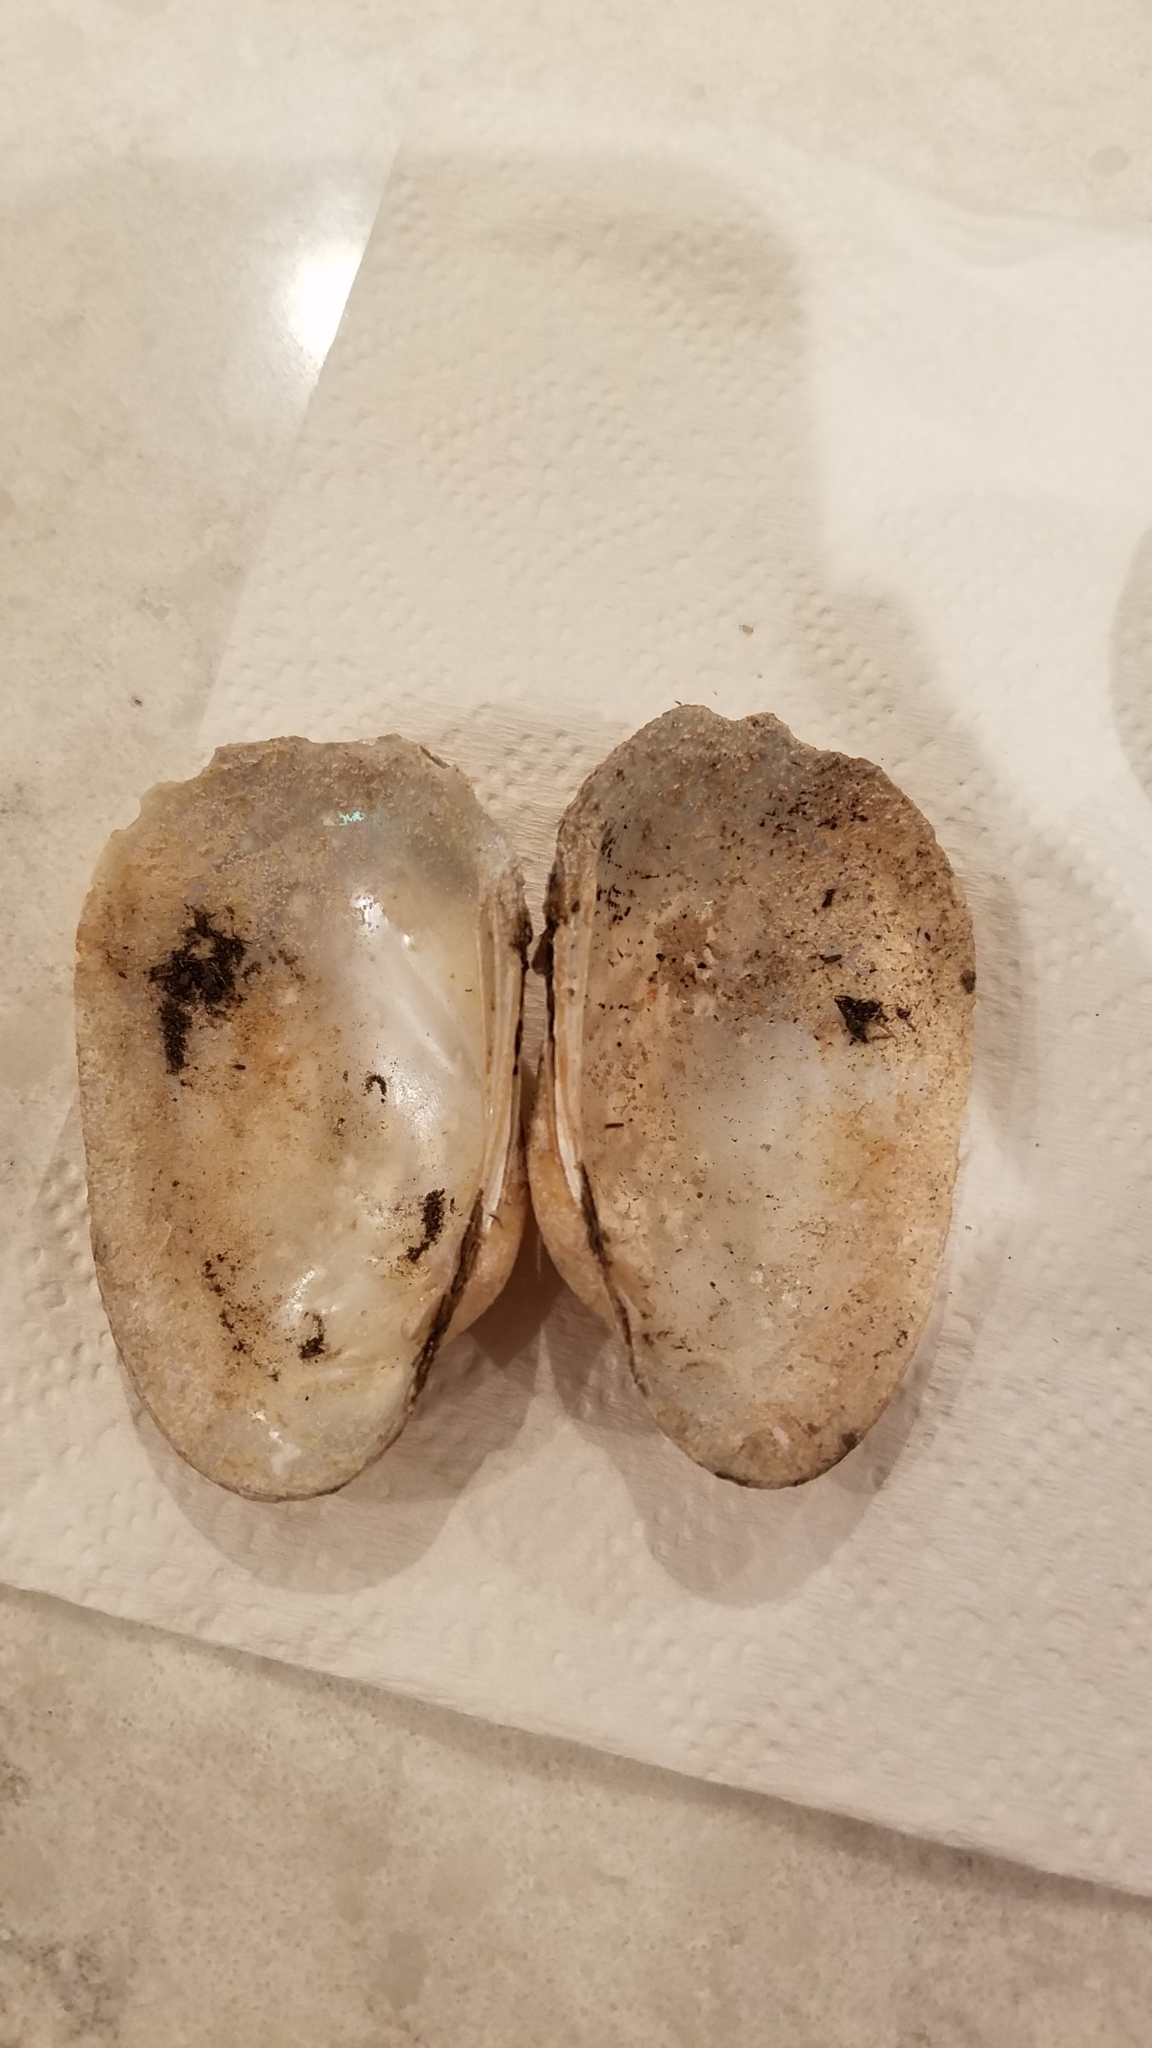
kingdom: Animalia
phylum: Mollusca
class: Bivalvia
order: Unionida
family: Unionidae
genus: Lampsilis
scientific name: Lampsilis siliquoidea
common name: Fatmucket
